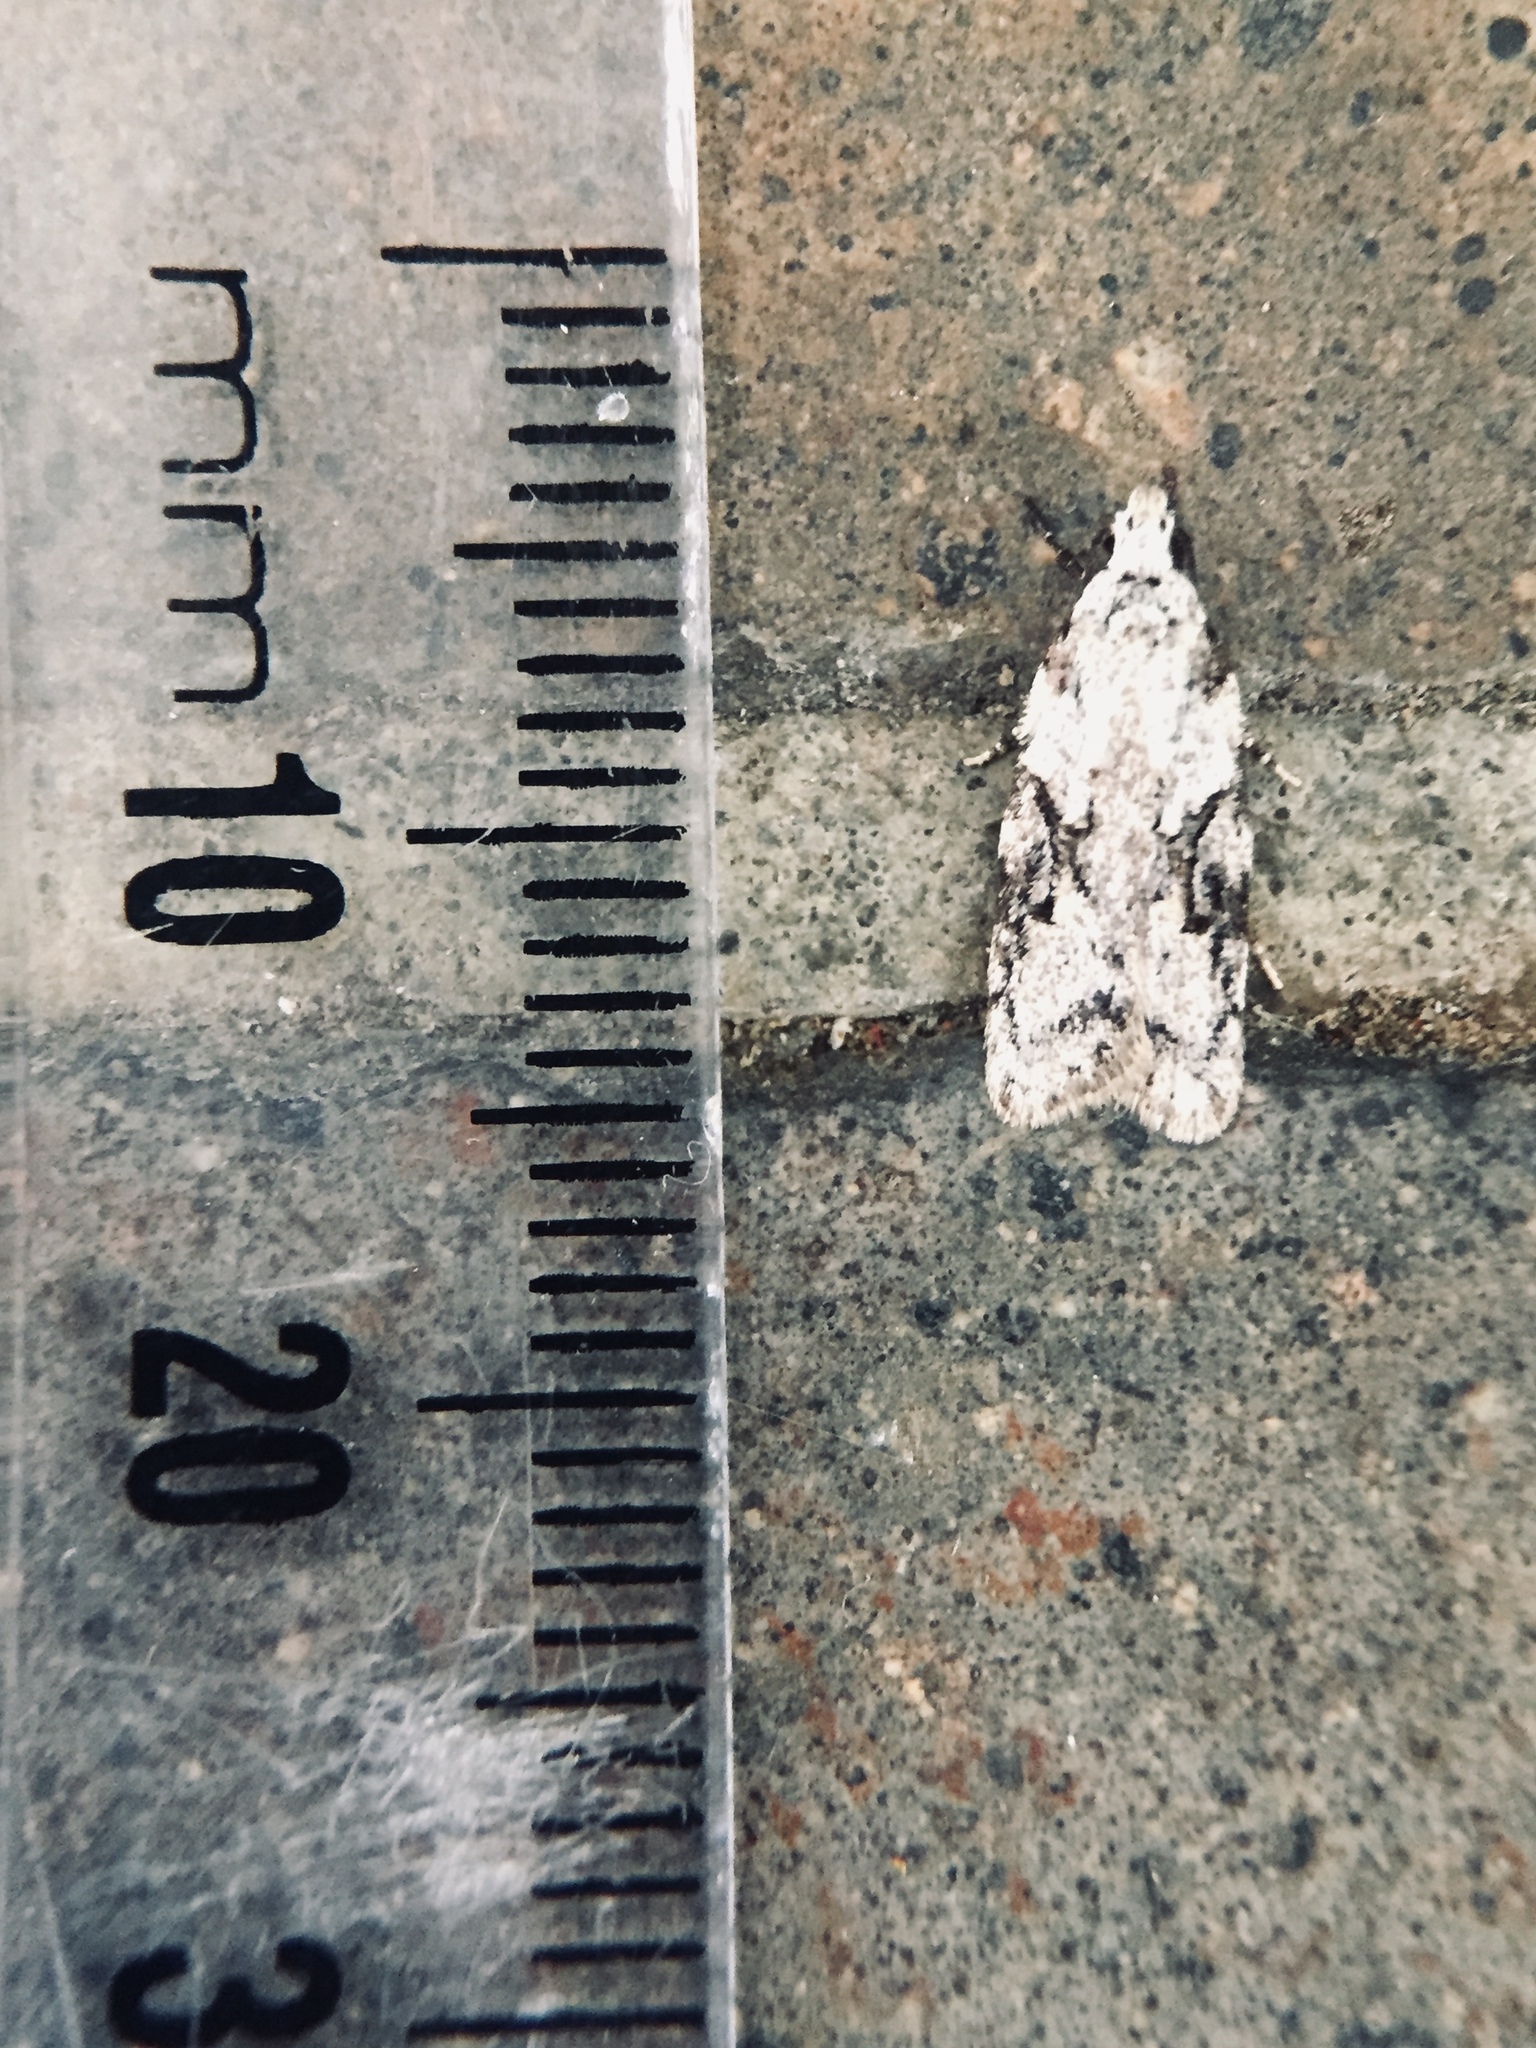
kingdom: Animalia
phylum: Arthropoda
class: Insecta
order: Lepidoptera
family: Oecophoridae
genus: Izatha
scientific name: Izatha mesoschista
